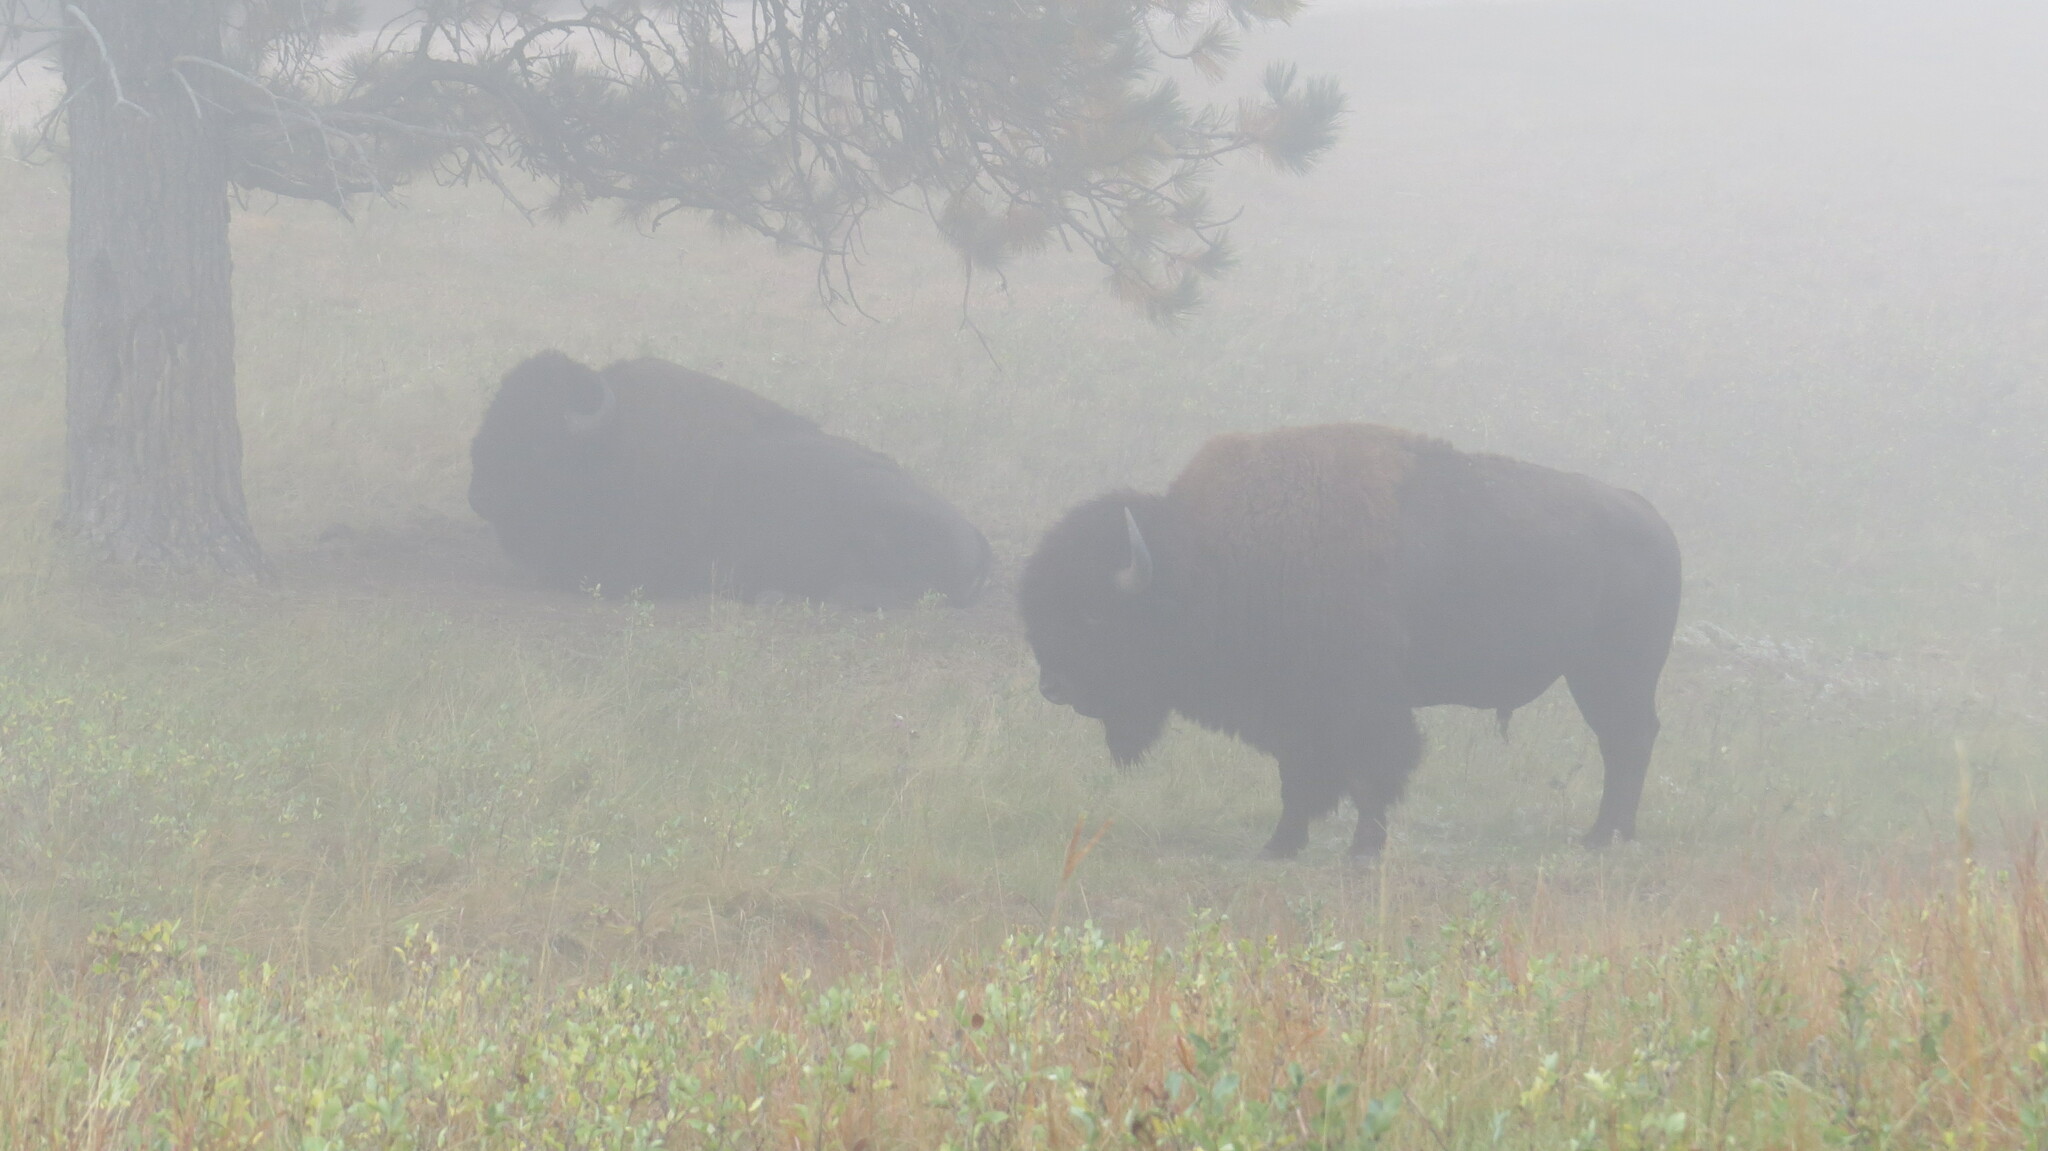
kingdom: Animalia
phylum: Chordata
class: Mammalia
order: Artiodactyla
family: Bovidae
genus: Bison
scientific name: Bison bison
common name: American bison
